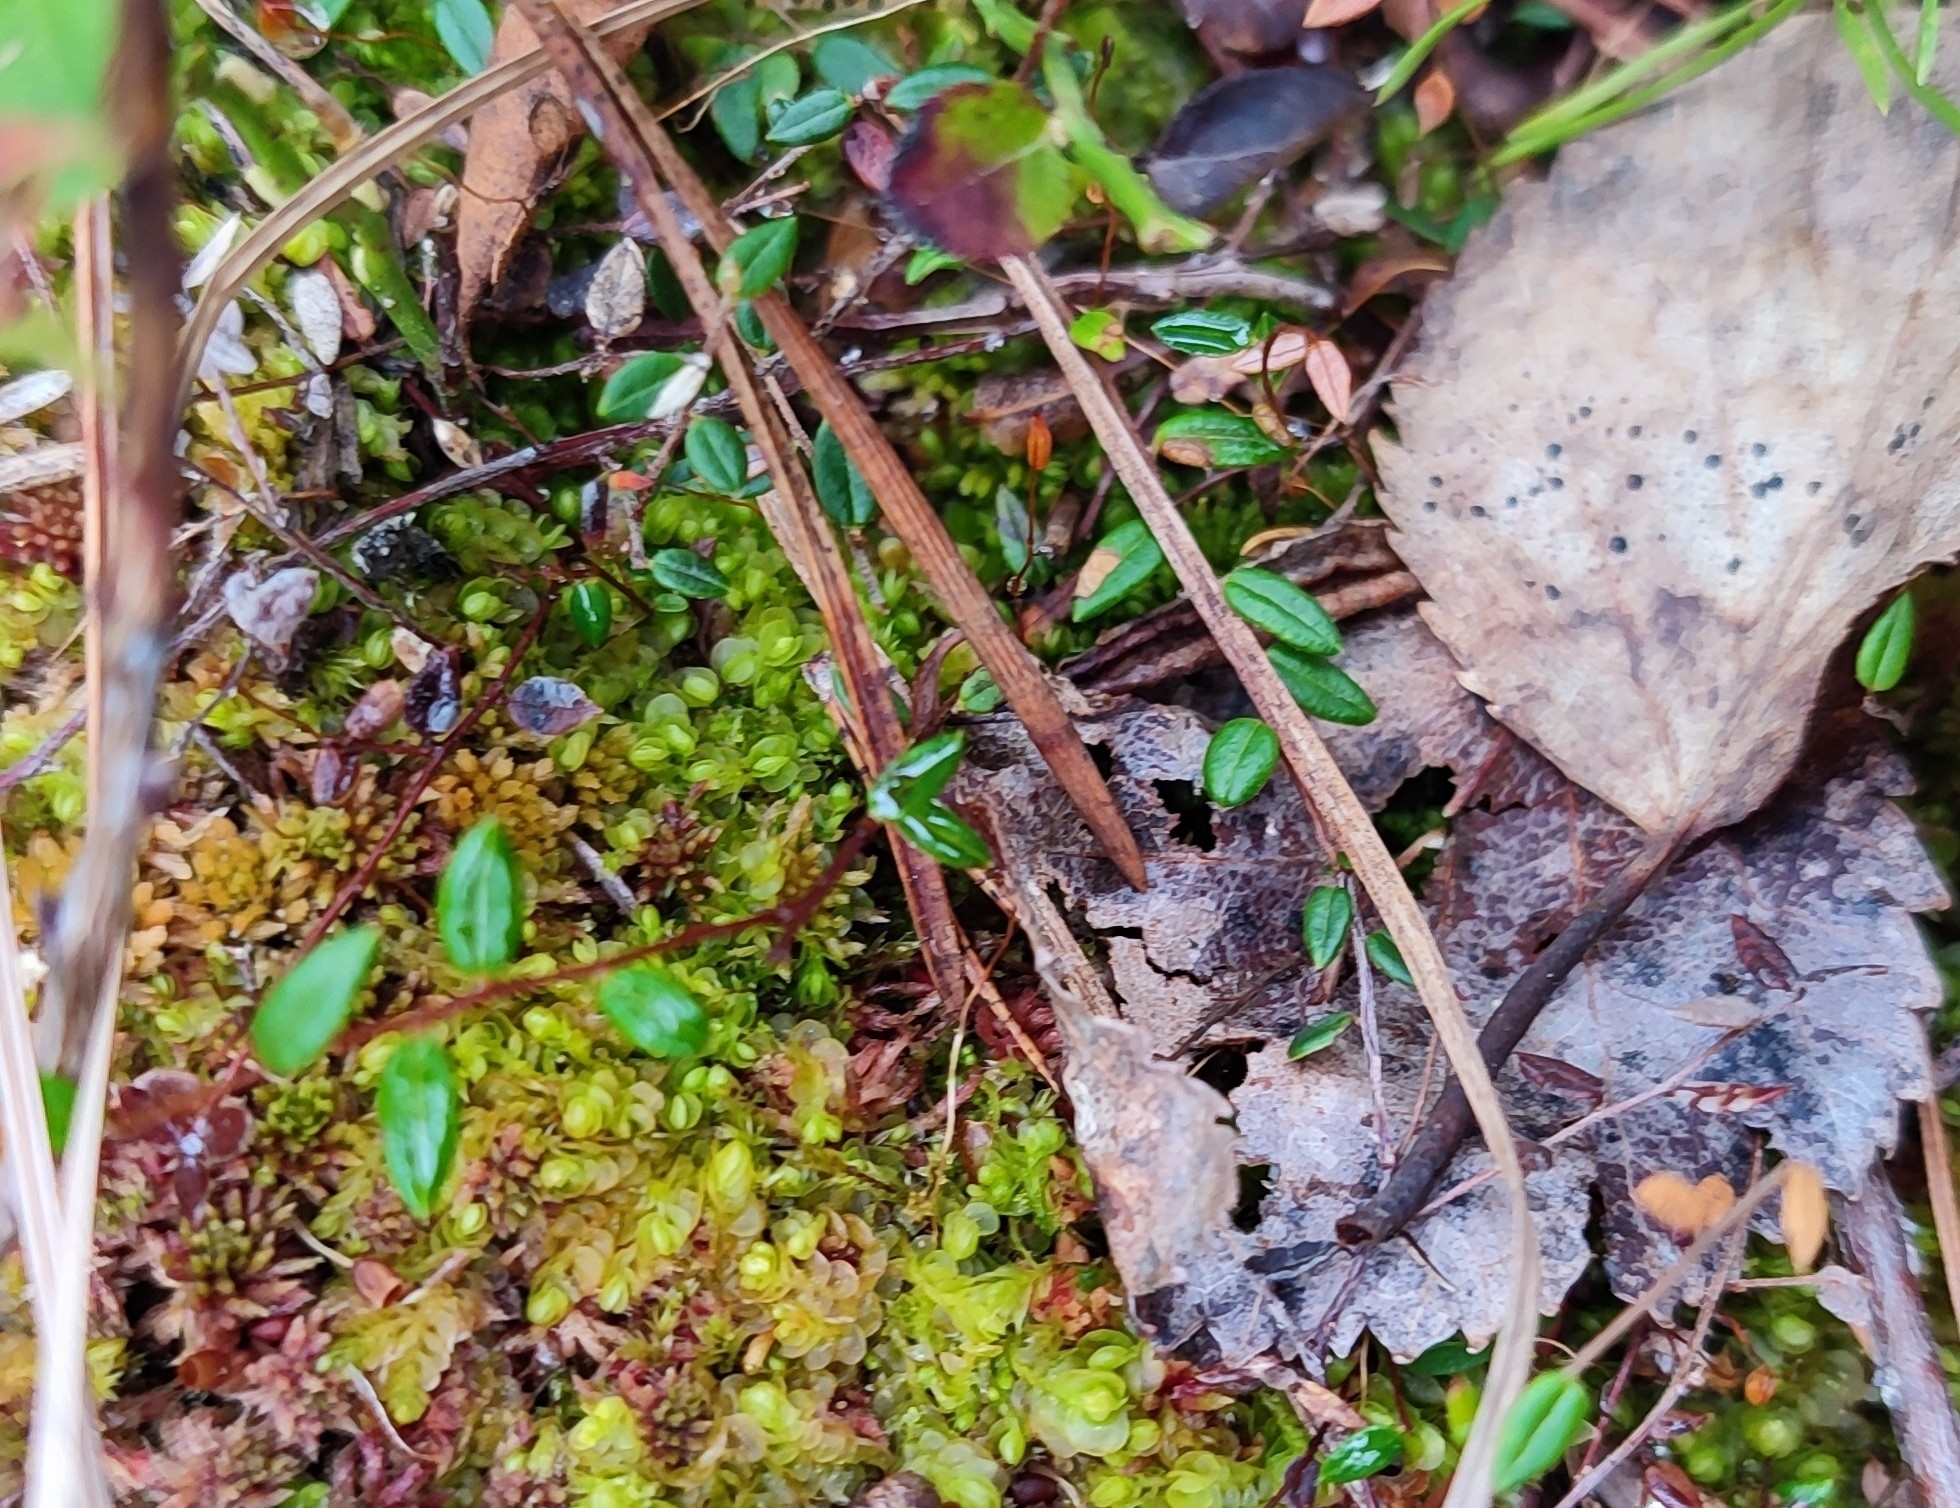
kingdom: Plantae
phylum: Tracheophyta
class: Magnoliopsida
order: Ericales
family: Ericaceae
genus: Vaccinium
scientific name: Vaccinium oxycoccos
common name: Cranberry
